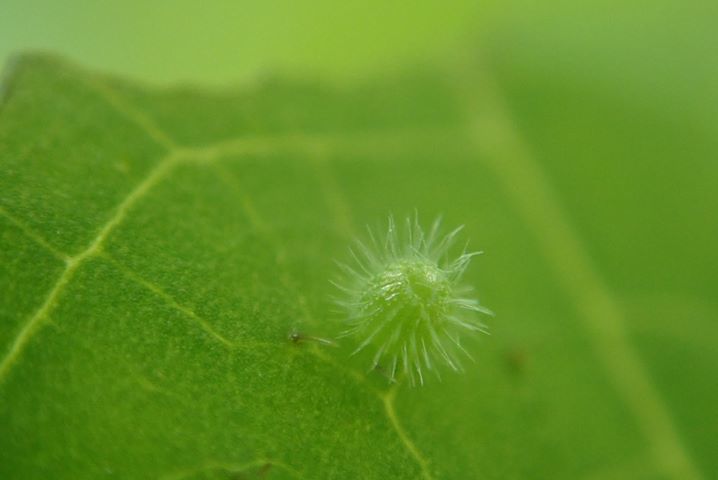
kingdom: Animalia
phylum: Arthropoda
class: Insecta
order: Lepidoptera
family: Nymphalidae
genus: Ariadne
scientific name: Ariadne ariadne
